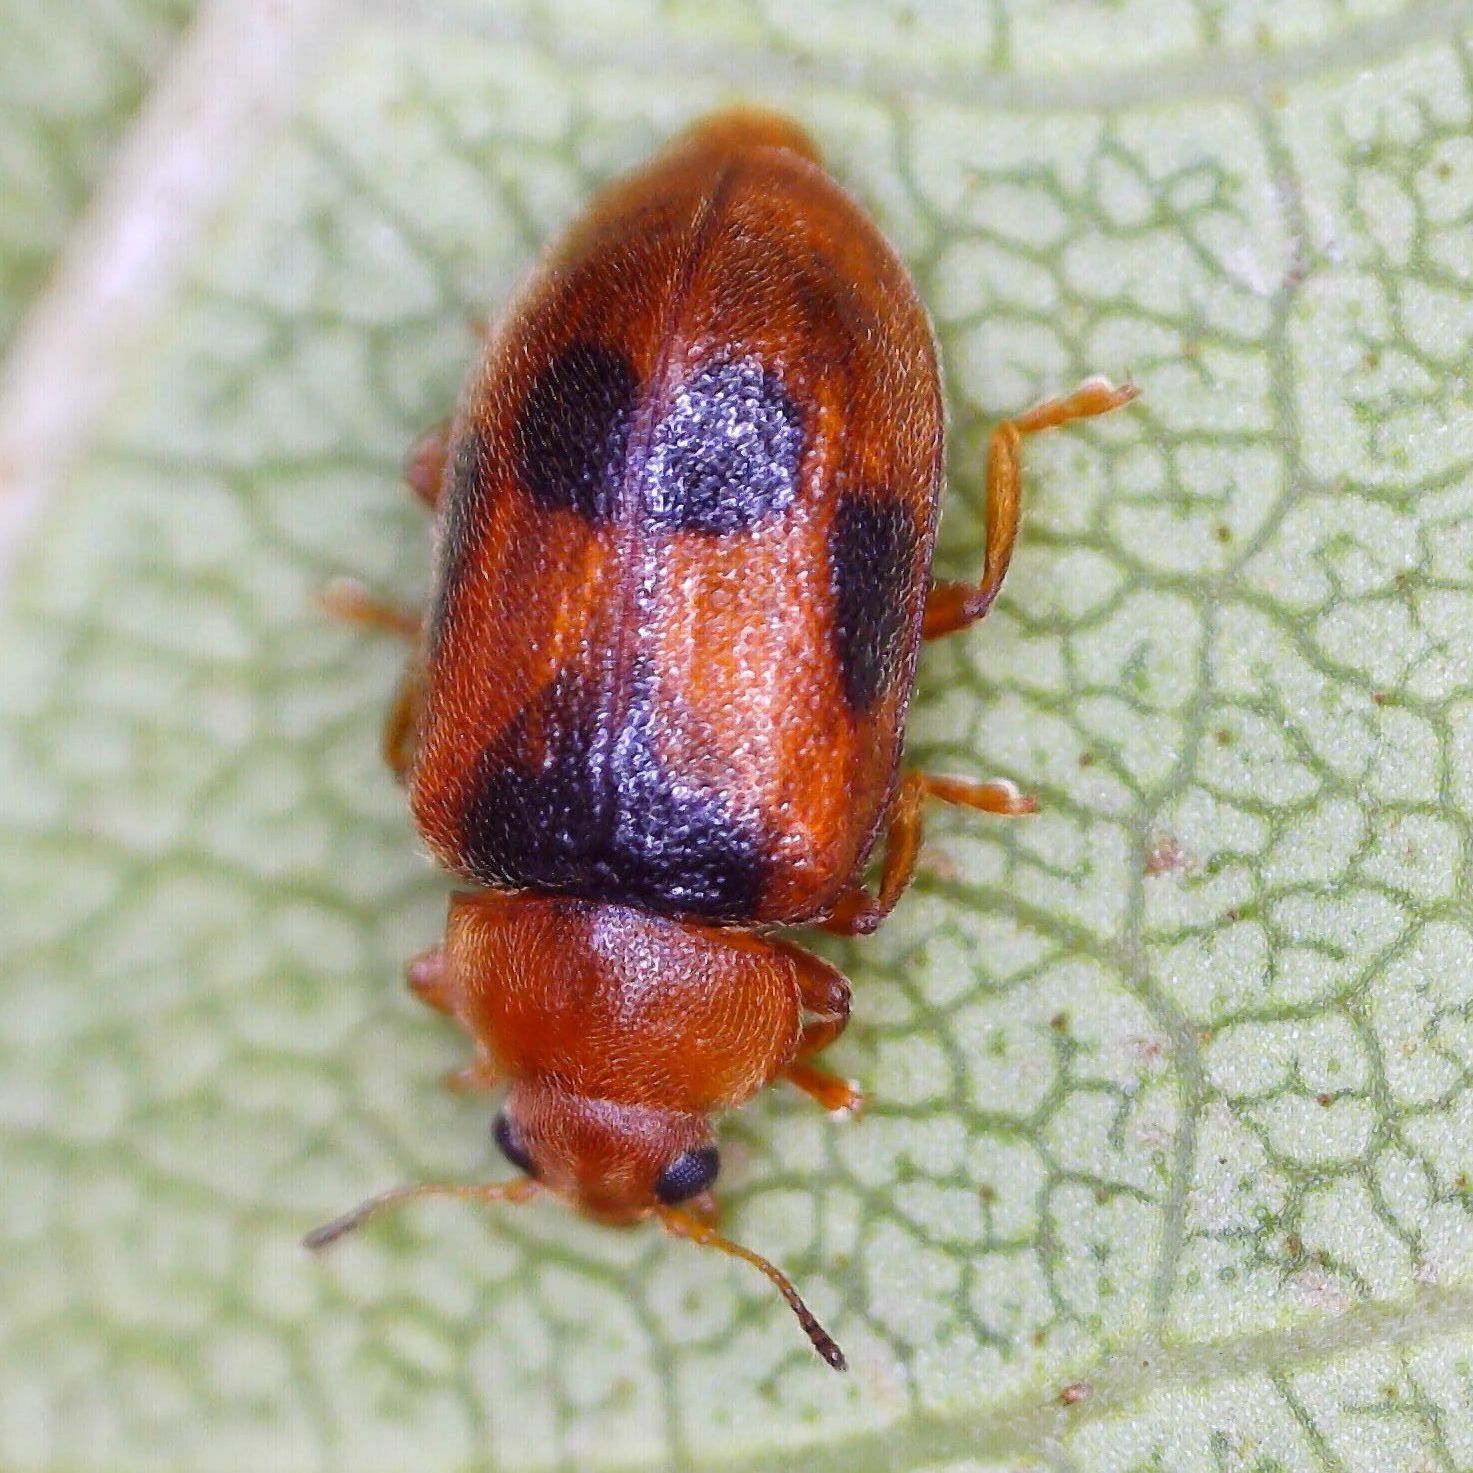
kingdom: Animalia
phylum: Arthropoda
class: Insecta
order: Coleoptera
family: Coccinellidae
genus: Coccidula
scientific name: Coccidula scutellata
